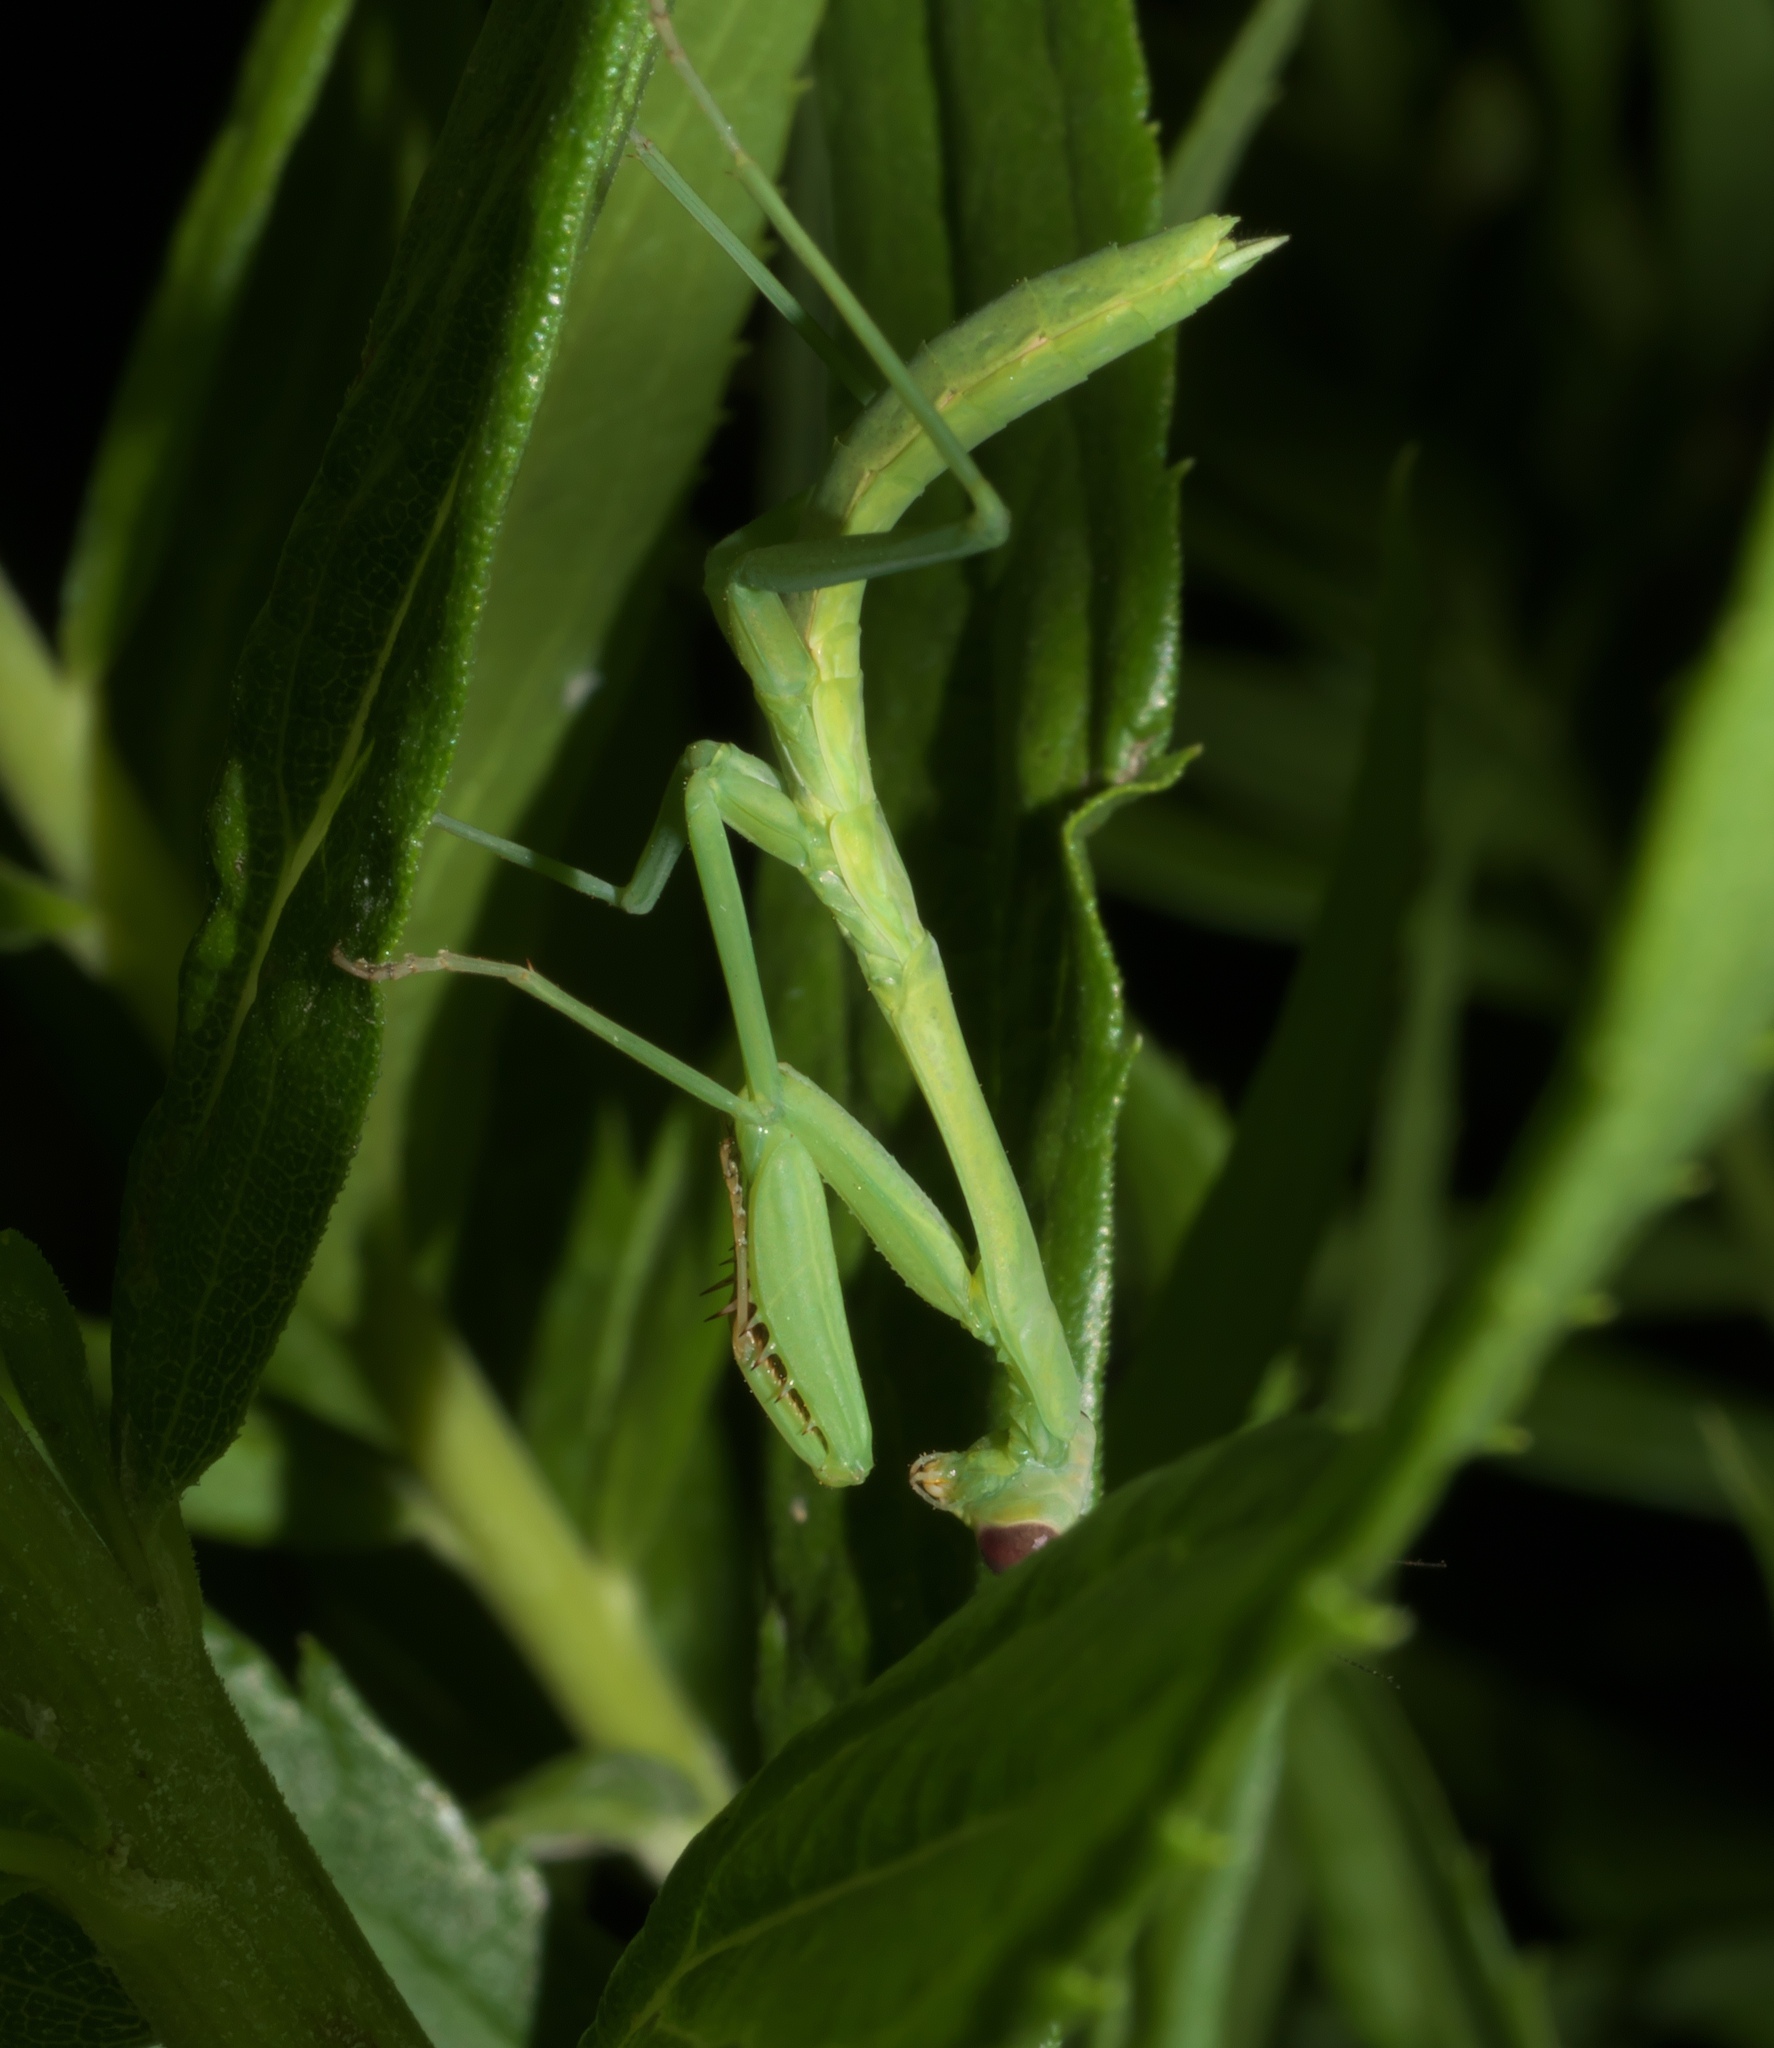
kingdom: Animalia
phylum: Arthropoda
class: Insecta
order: Mantodea
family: Mantidae
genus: Stagmomantis
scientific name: Stagmomantis carolina
